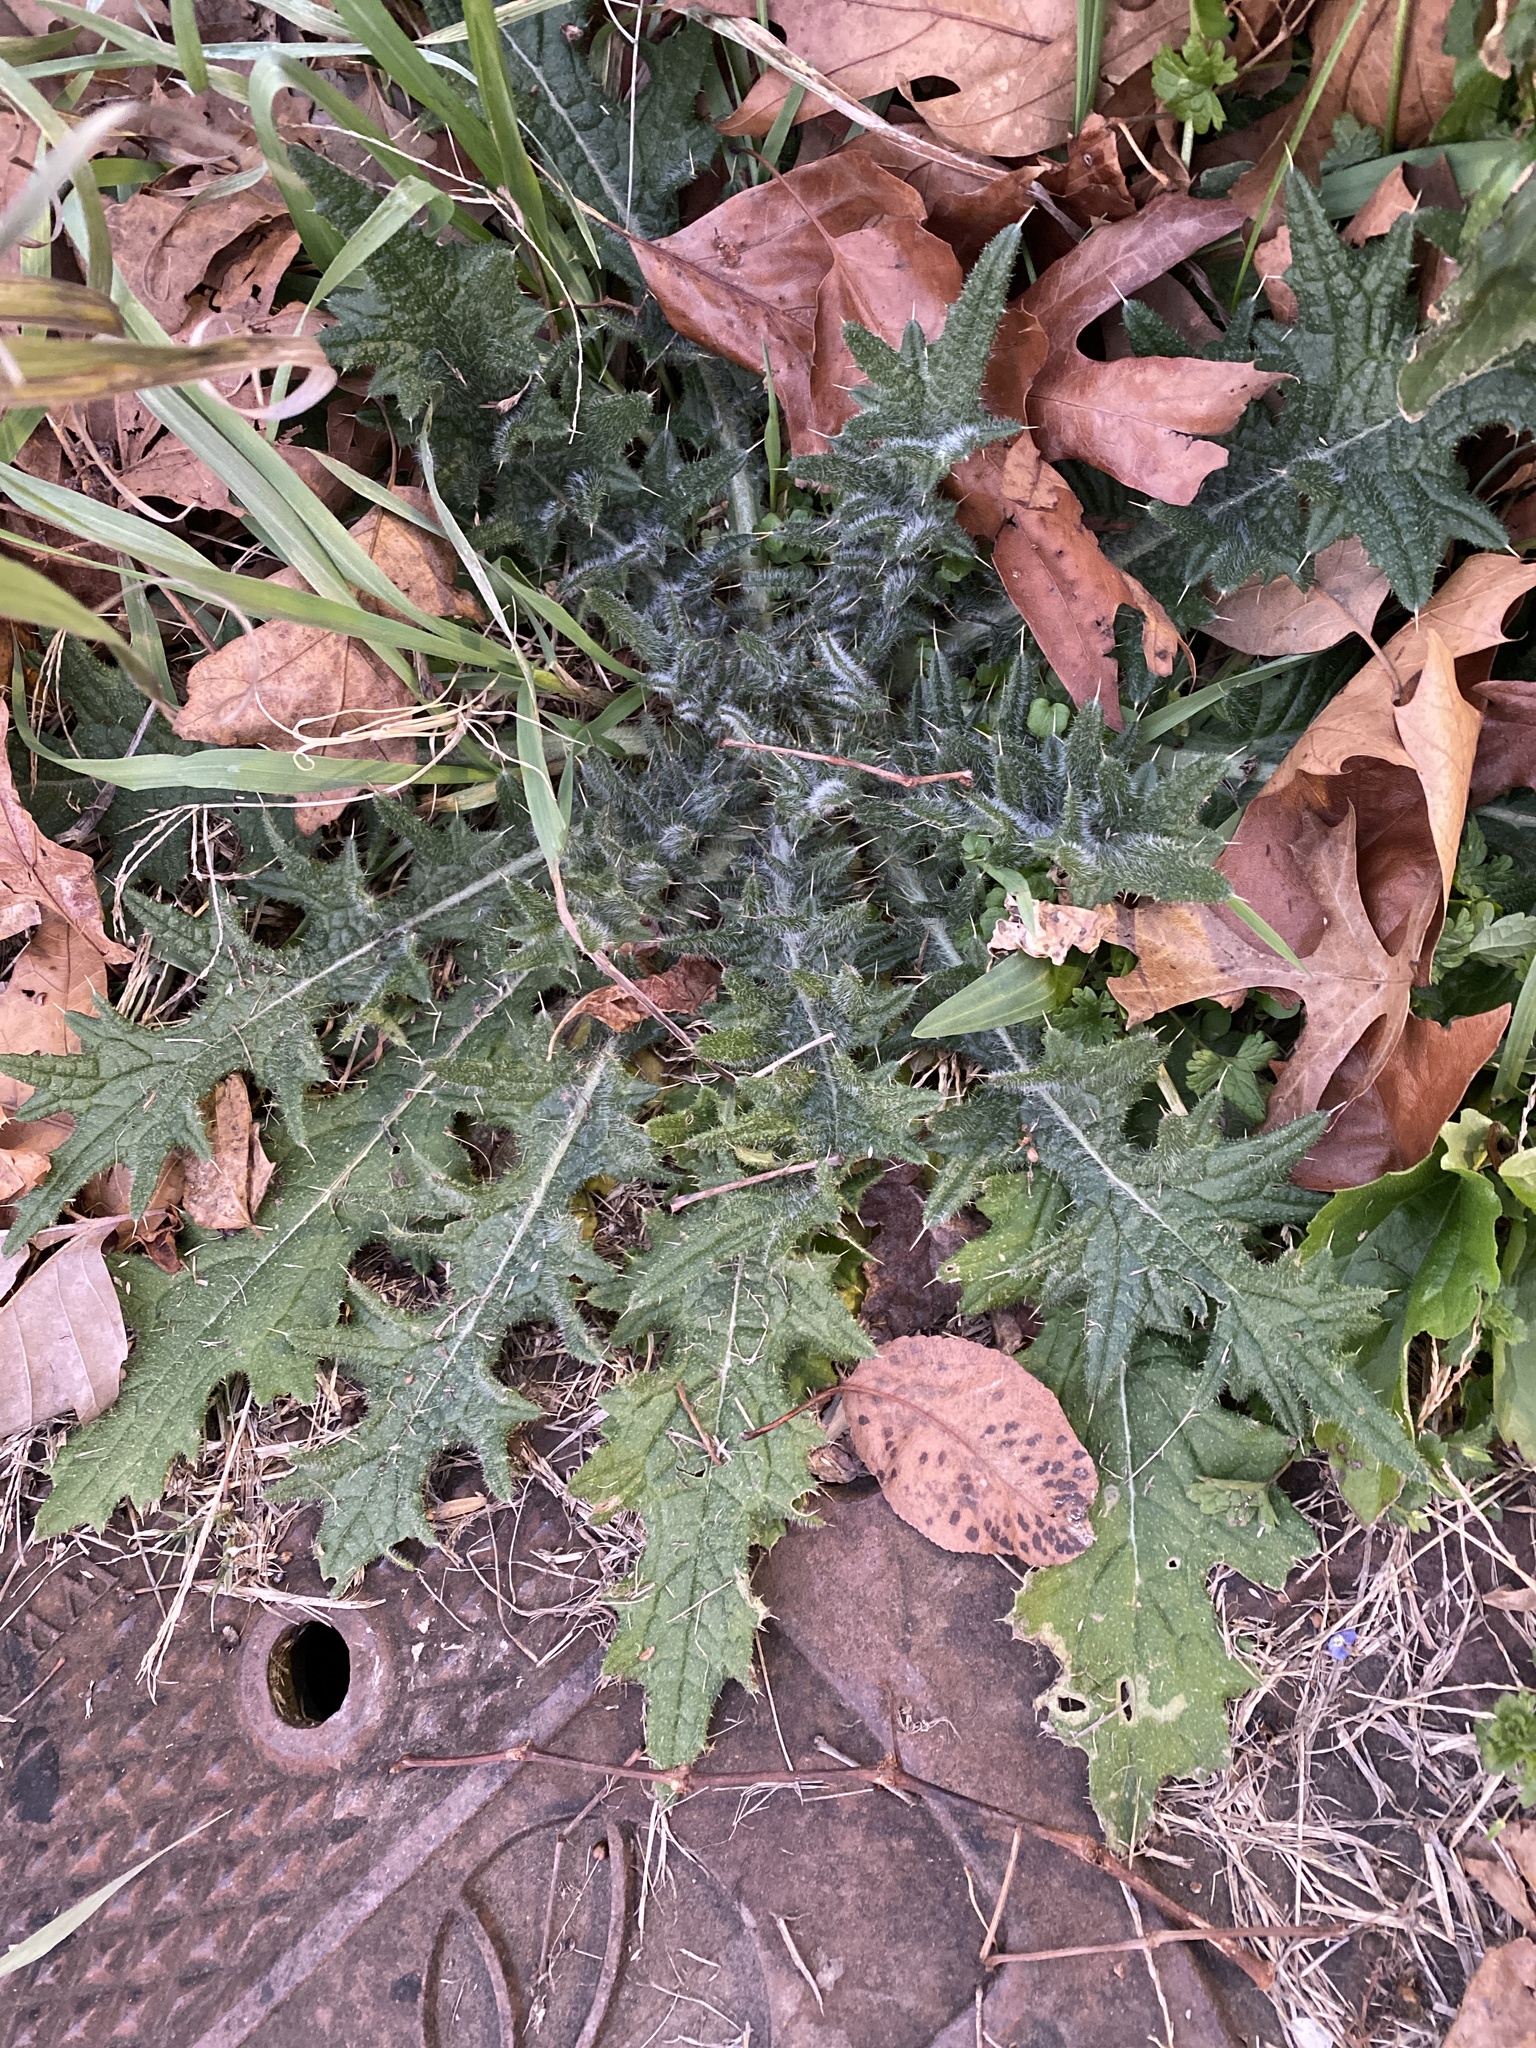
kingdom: Plantae
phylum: Tracheophyta
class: Magnoliopsida
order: Asterales
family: Asteraceae
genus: Cirsium
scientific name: Cirsium vulgare
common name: Bull thistle
